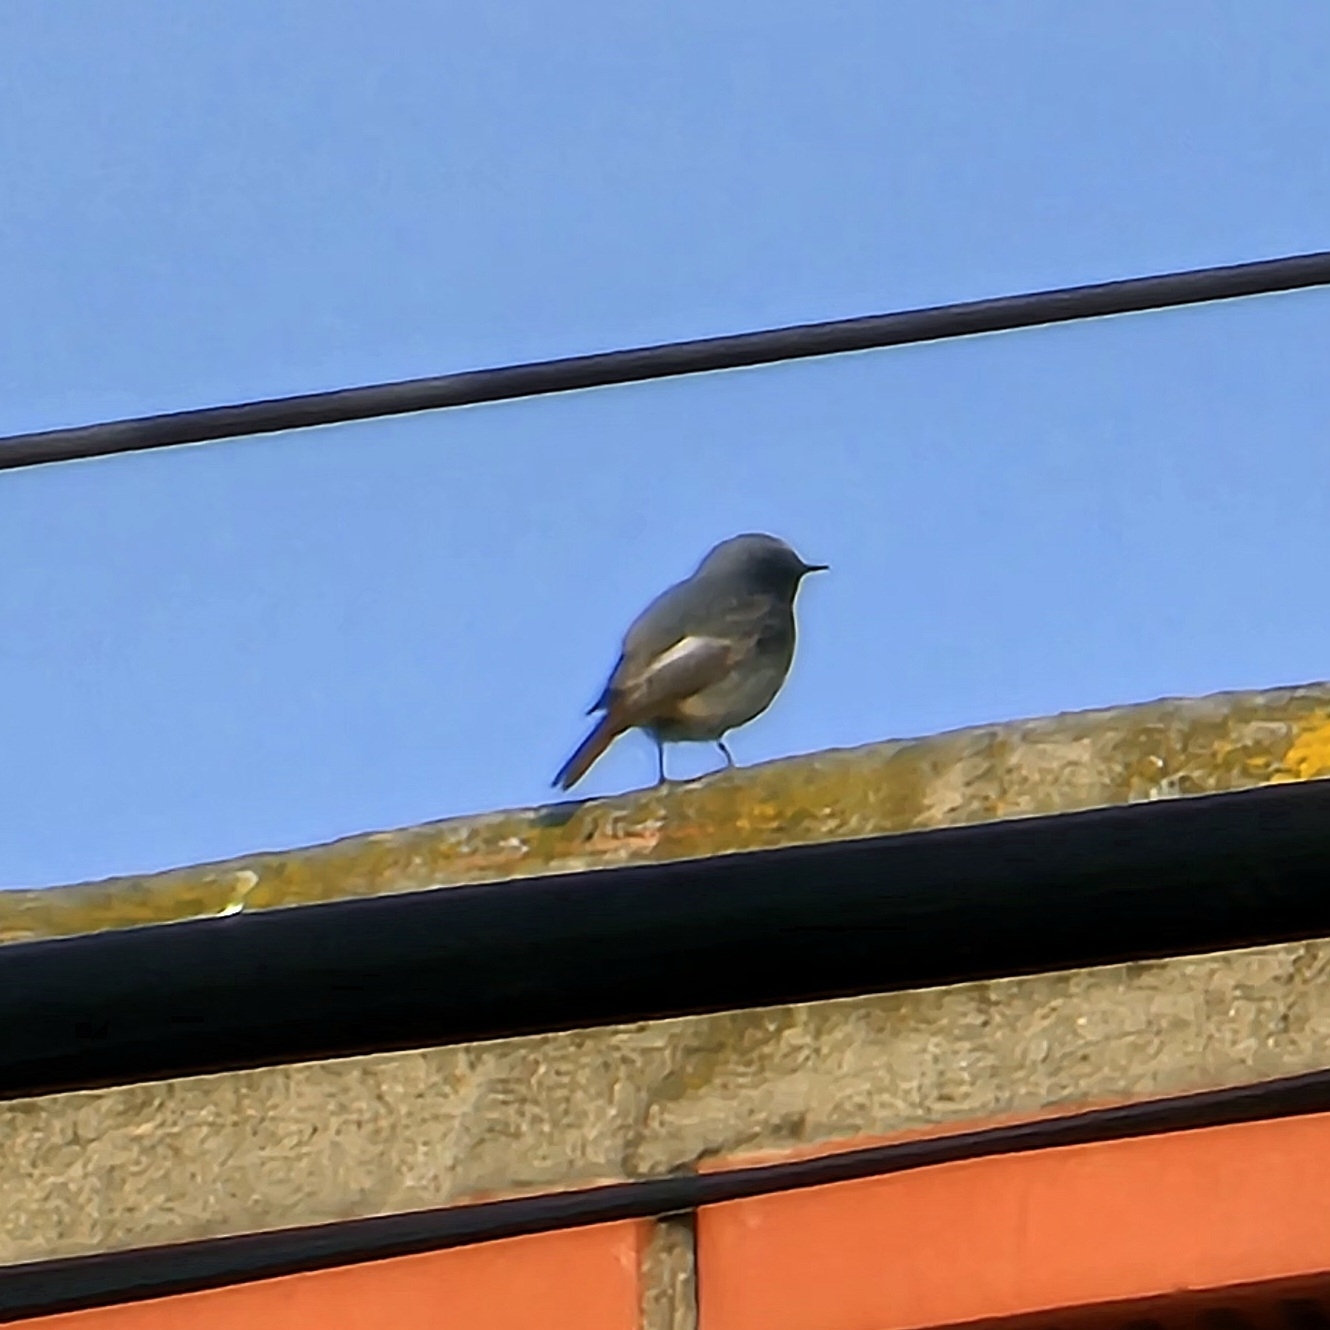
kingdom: Animalia
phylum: Chordata
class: Aves
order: Passeriformes
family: Muscicapidae
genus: Phoenicurus
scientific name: Phoenicurus ochruros
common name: Black redstart
